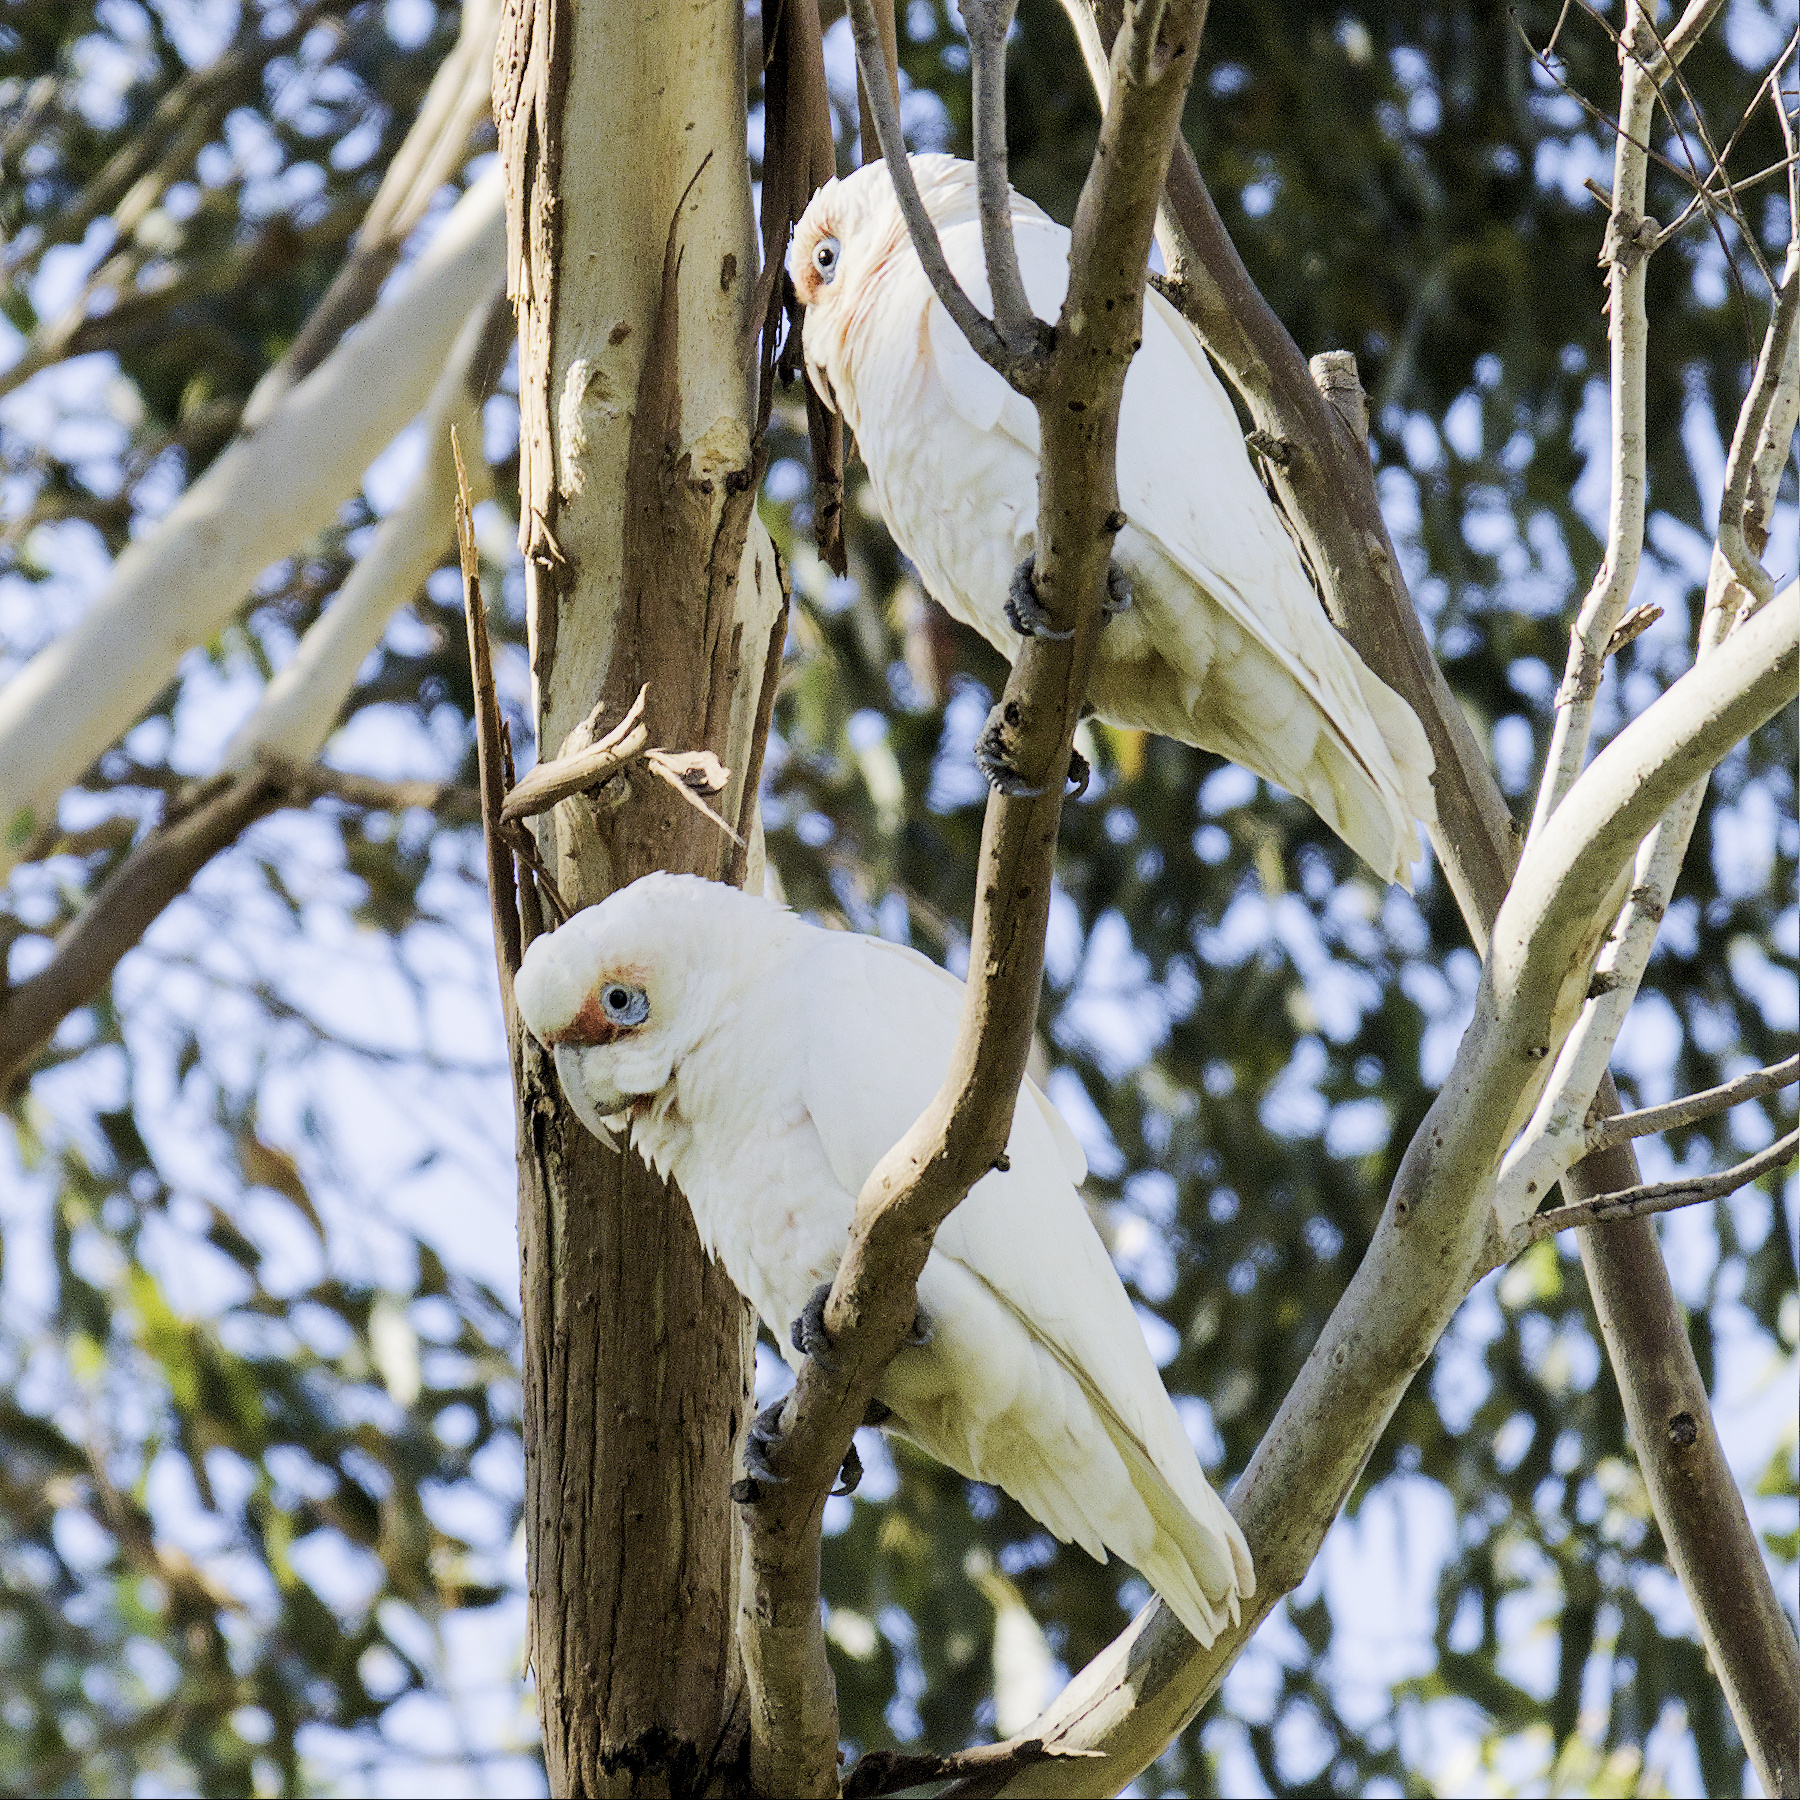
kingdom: Animalia
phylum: Chordata
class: Aves
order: Psittaciformes
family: Psittacidae
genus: Cacatua
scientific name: Cacatua tenuirostris
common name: Long-billed corella
